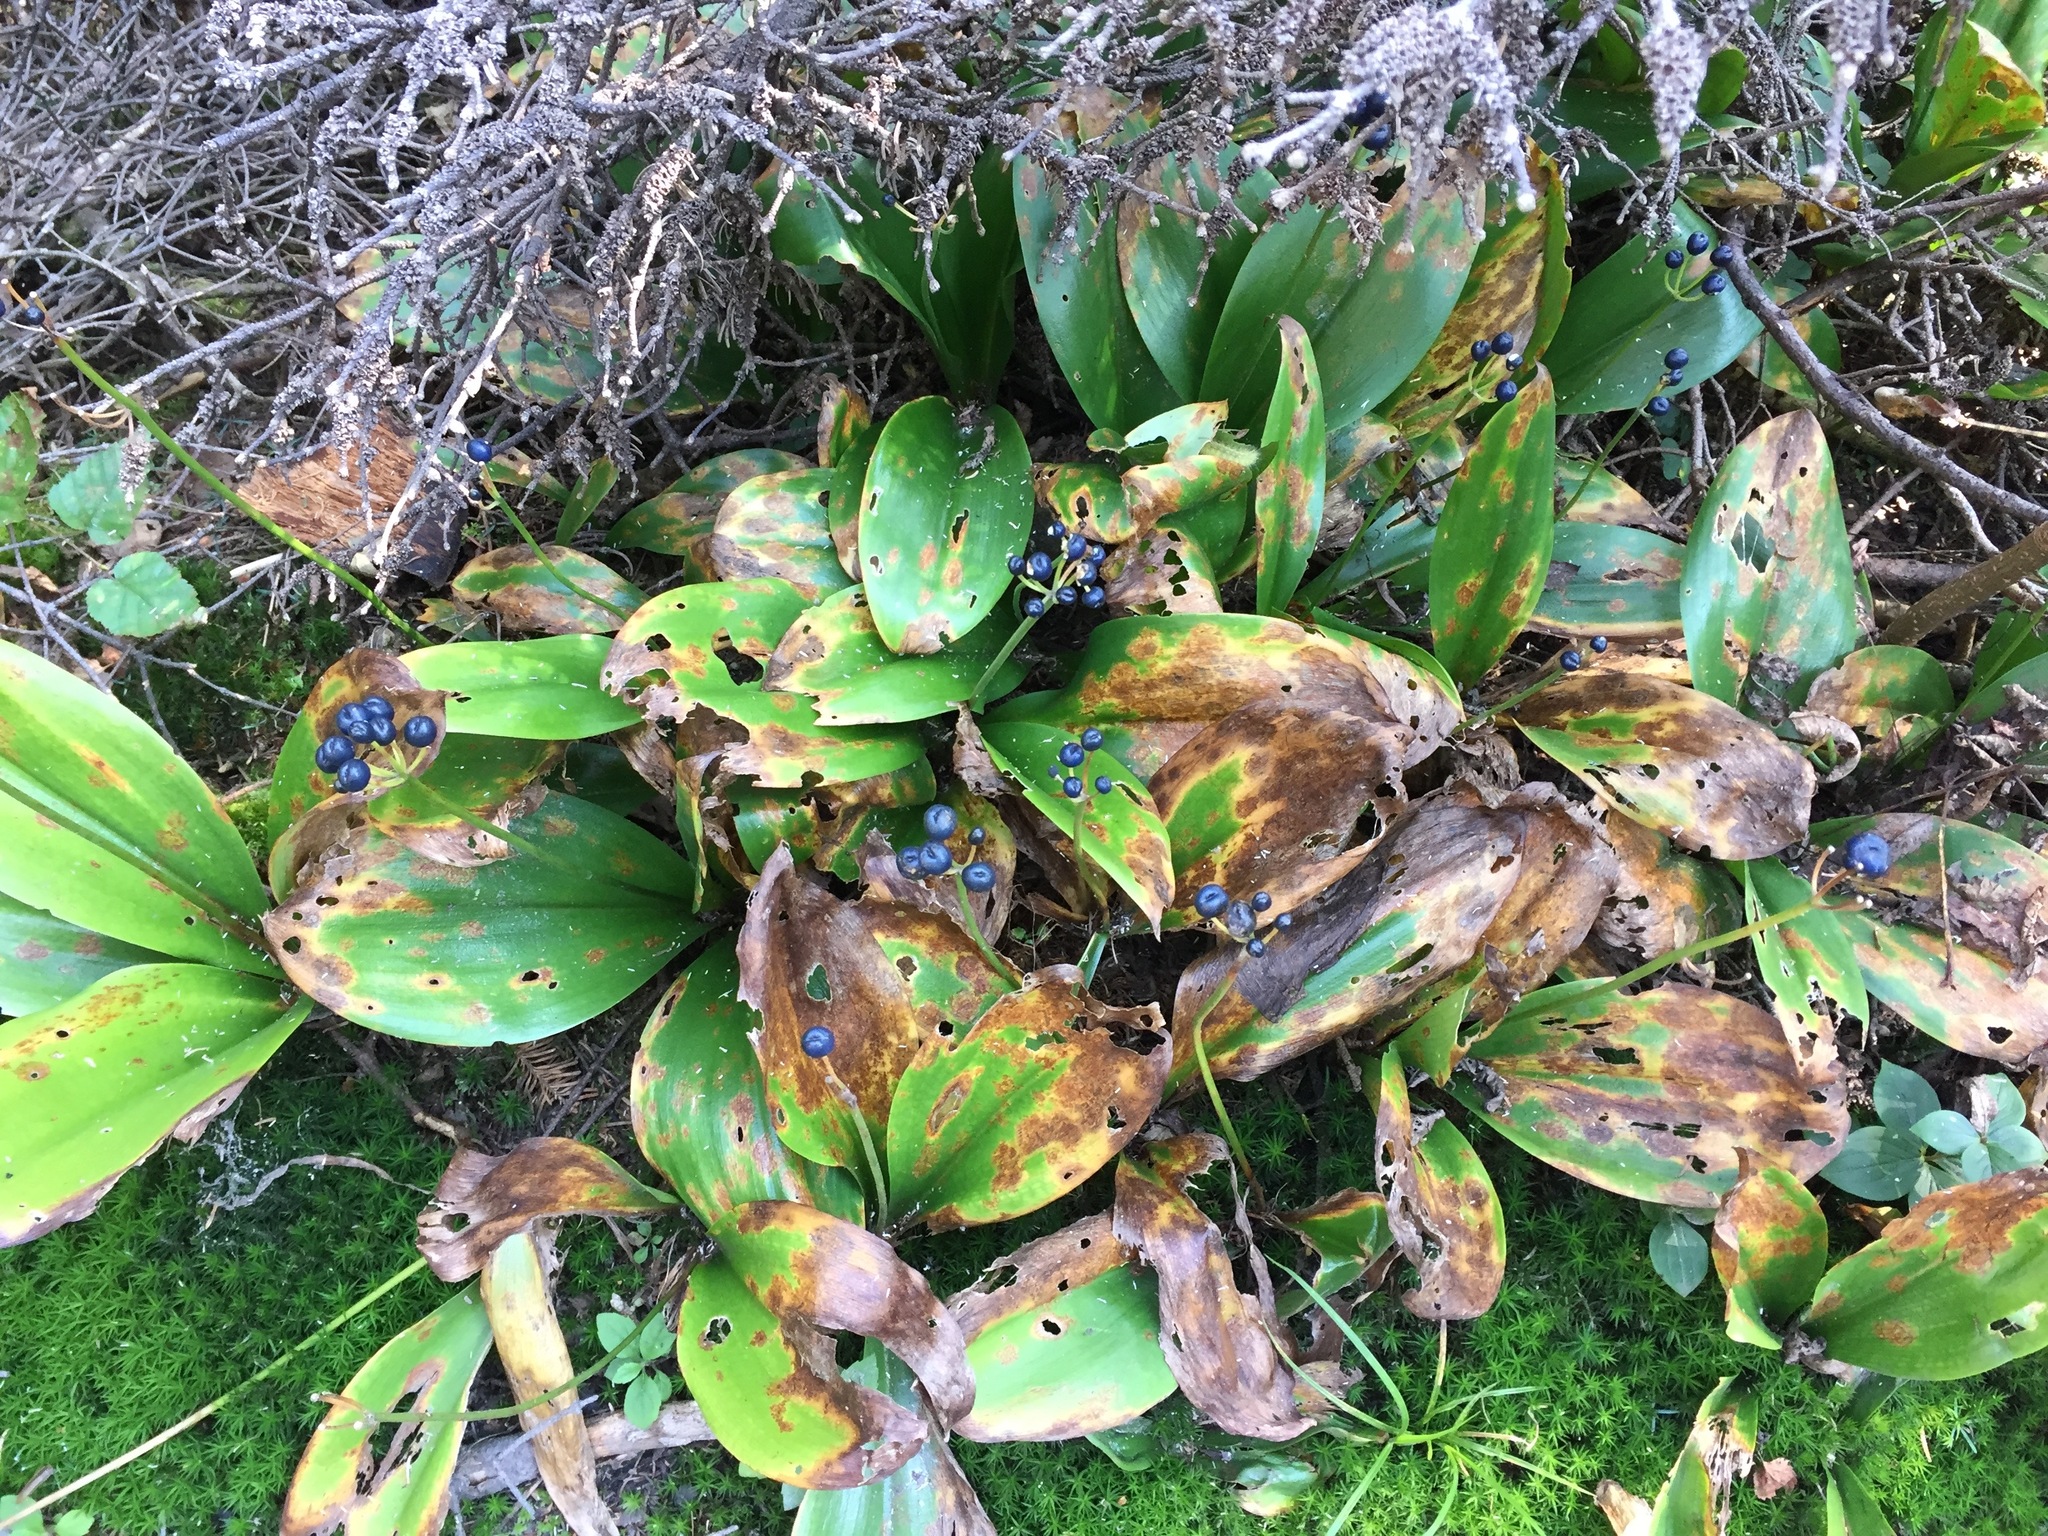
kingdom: Plantae
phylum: Tracheophyta
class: Liliopsida
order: Liliales
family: Liliaceae
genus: Clintonia
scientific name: Clintonia borealis
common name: Yellow clintonia
